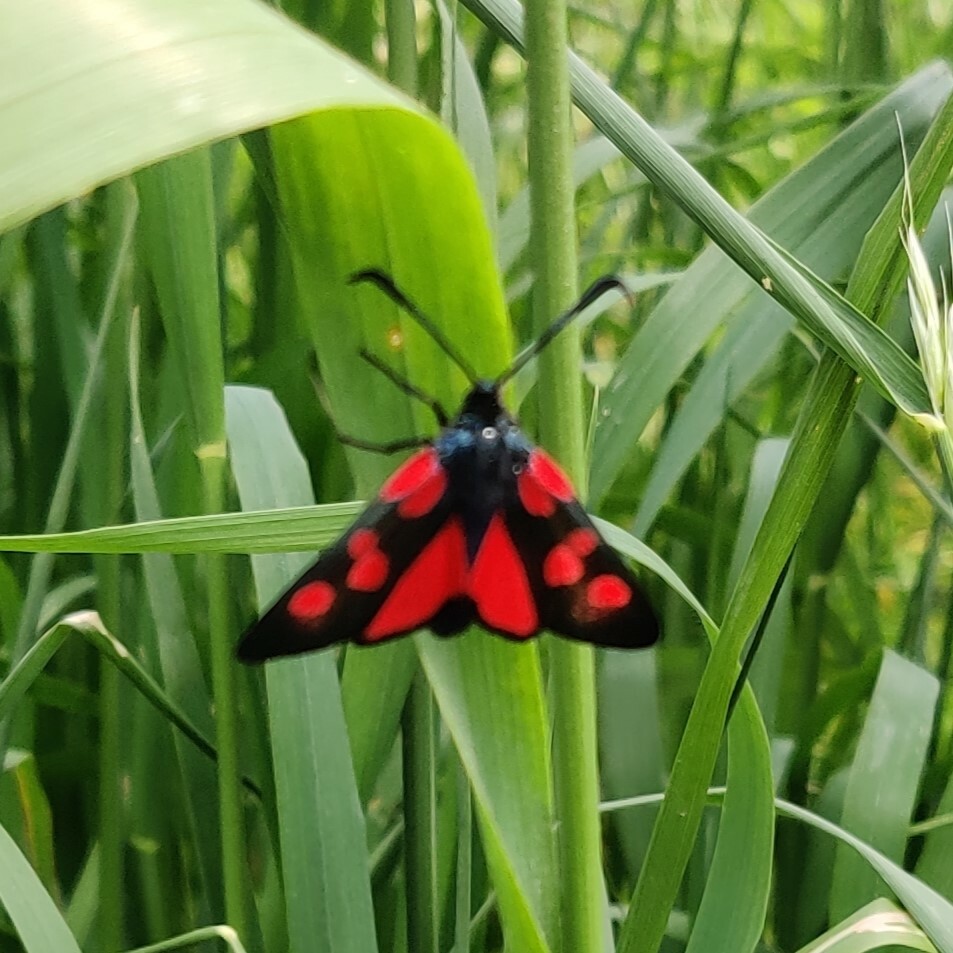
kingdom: Animalia
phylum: Arthropoda
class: Insecta
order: Lepidoptera
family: Zygaenidae
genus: Zygaena
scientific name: Zygaena lonicerae
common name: Narrow-bordered five-spot burnet
